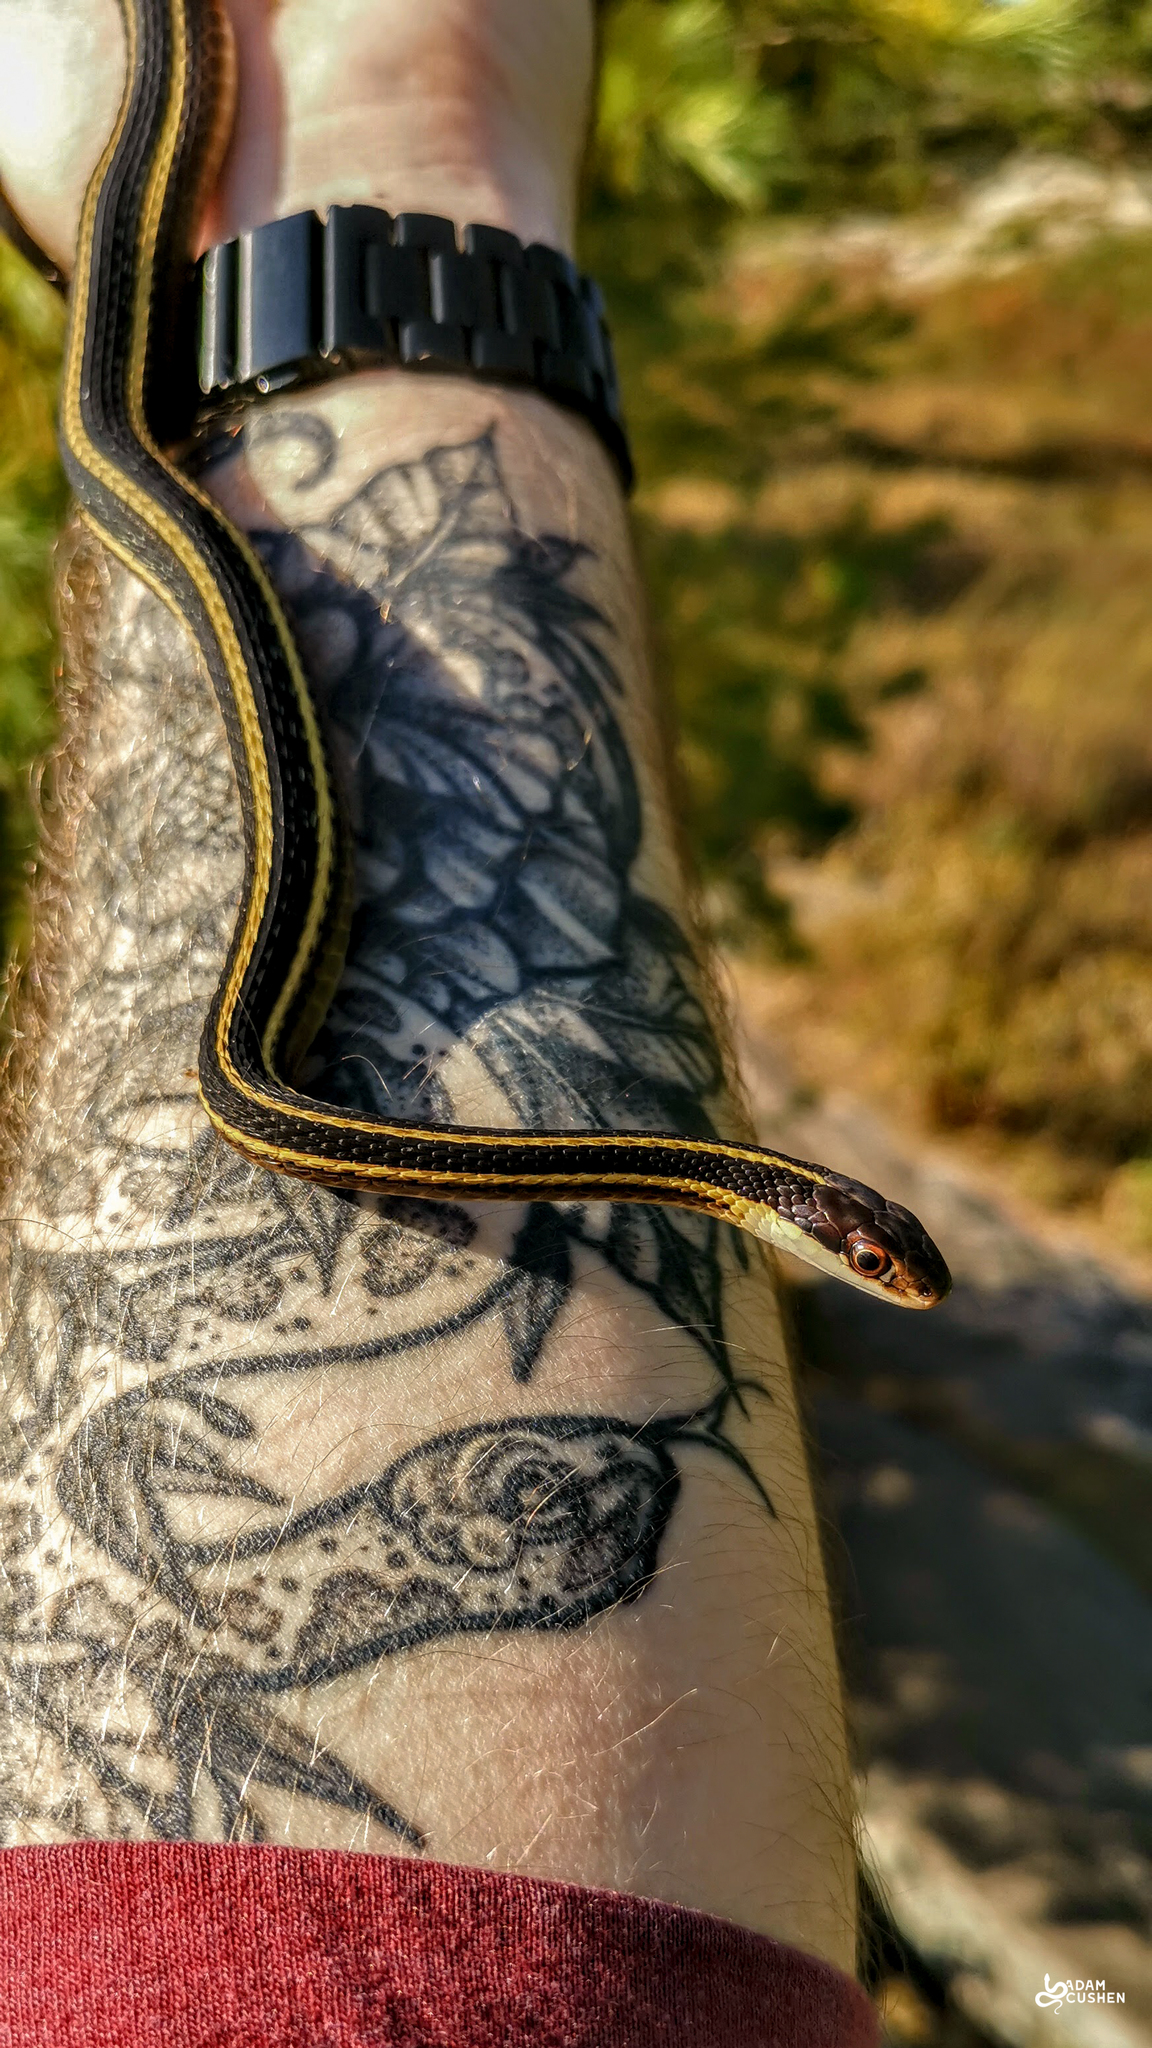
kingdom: Animalia
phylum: Chordata
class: Squamata
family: Colubridae
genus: Thamnophis
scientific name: Thamnophis saurita
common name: Eastern ribbonsnake
